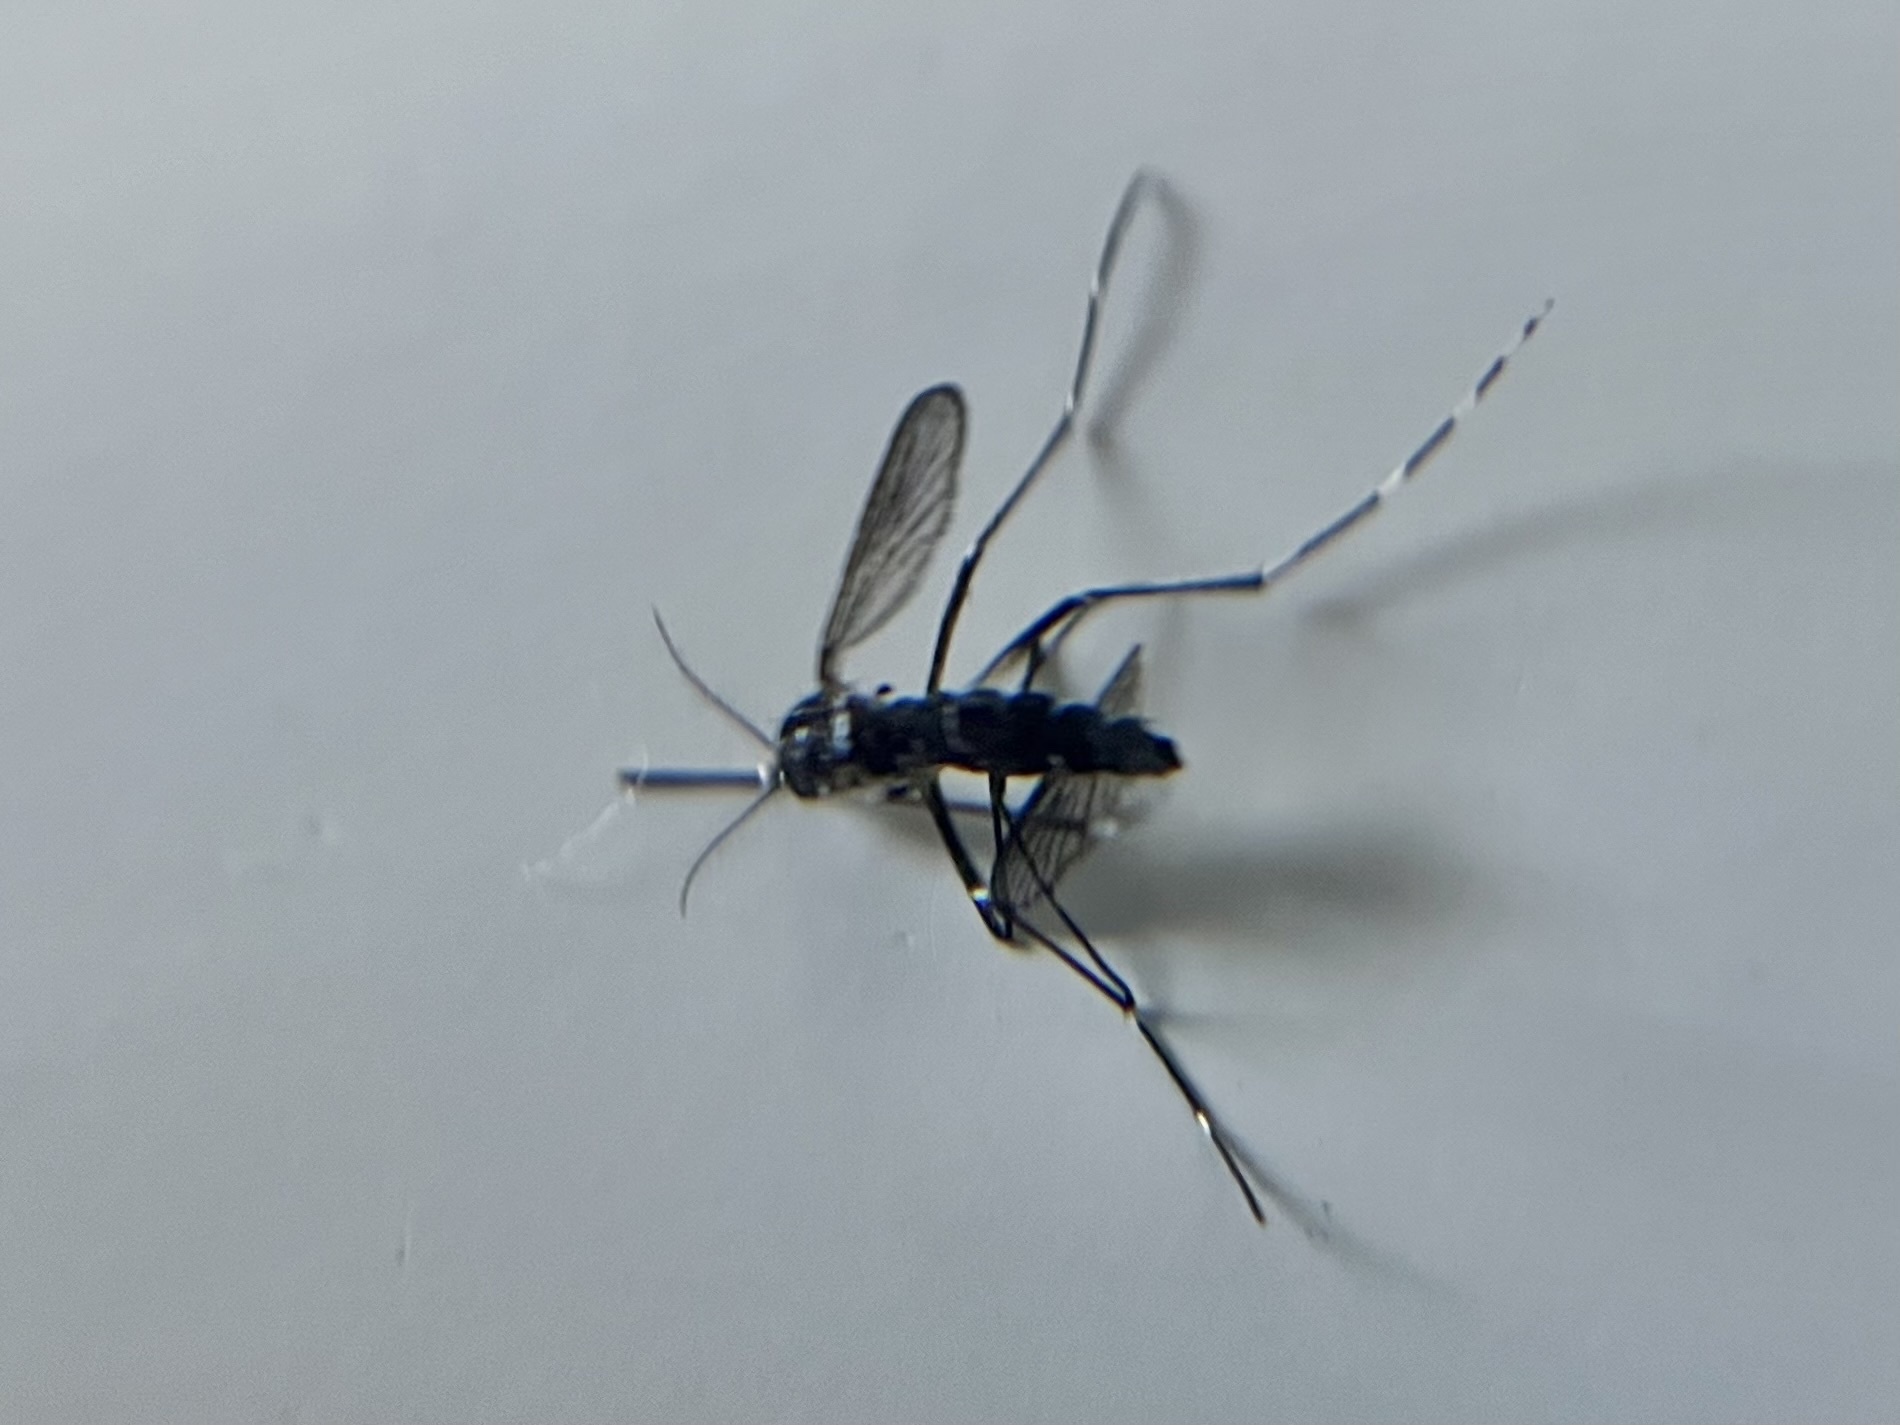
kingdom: Animalia
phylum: Arthropoda
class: Insecta
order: Diptera
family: Culicidae
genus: Aedes
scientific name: Aedes albopictus
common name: Tiger mosquito
